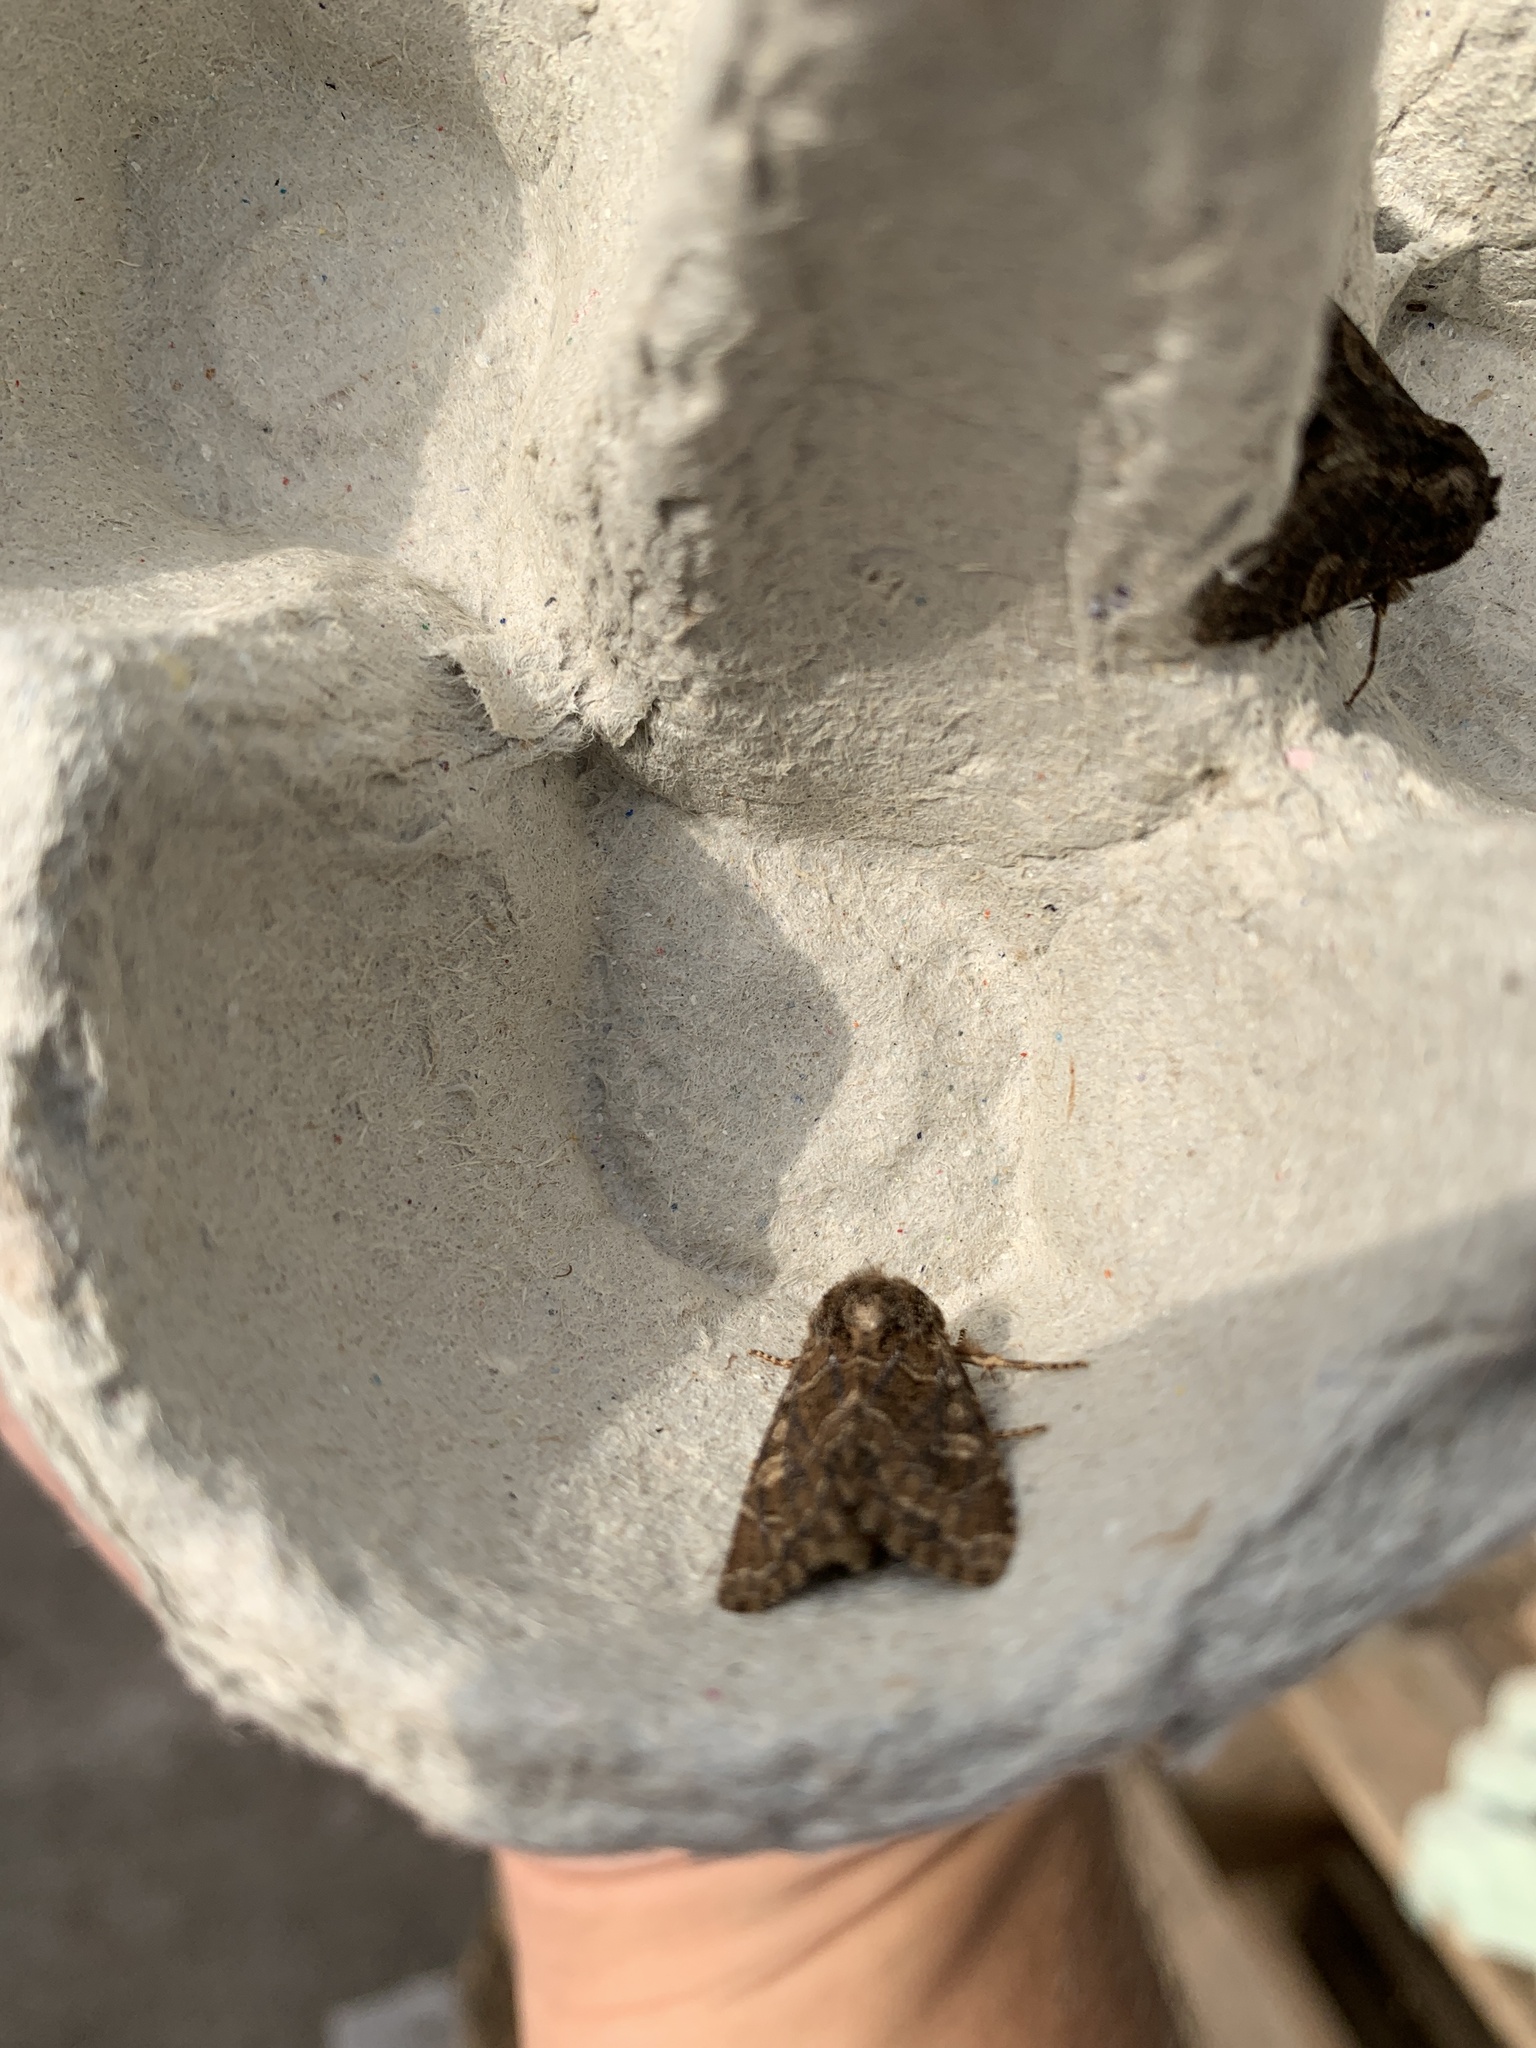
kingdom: Animalia
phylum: Arthropoda
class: Insecta
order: Lepidoptera
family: Noctuidae
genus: Luperina
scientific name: Luperina testacea
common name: Flounced rustic
